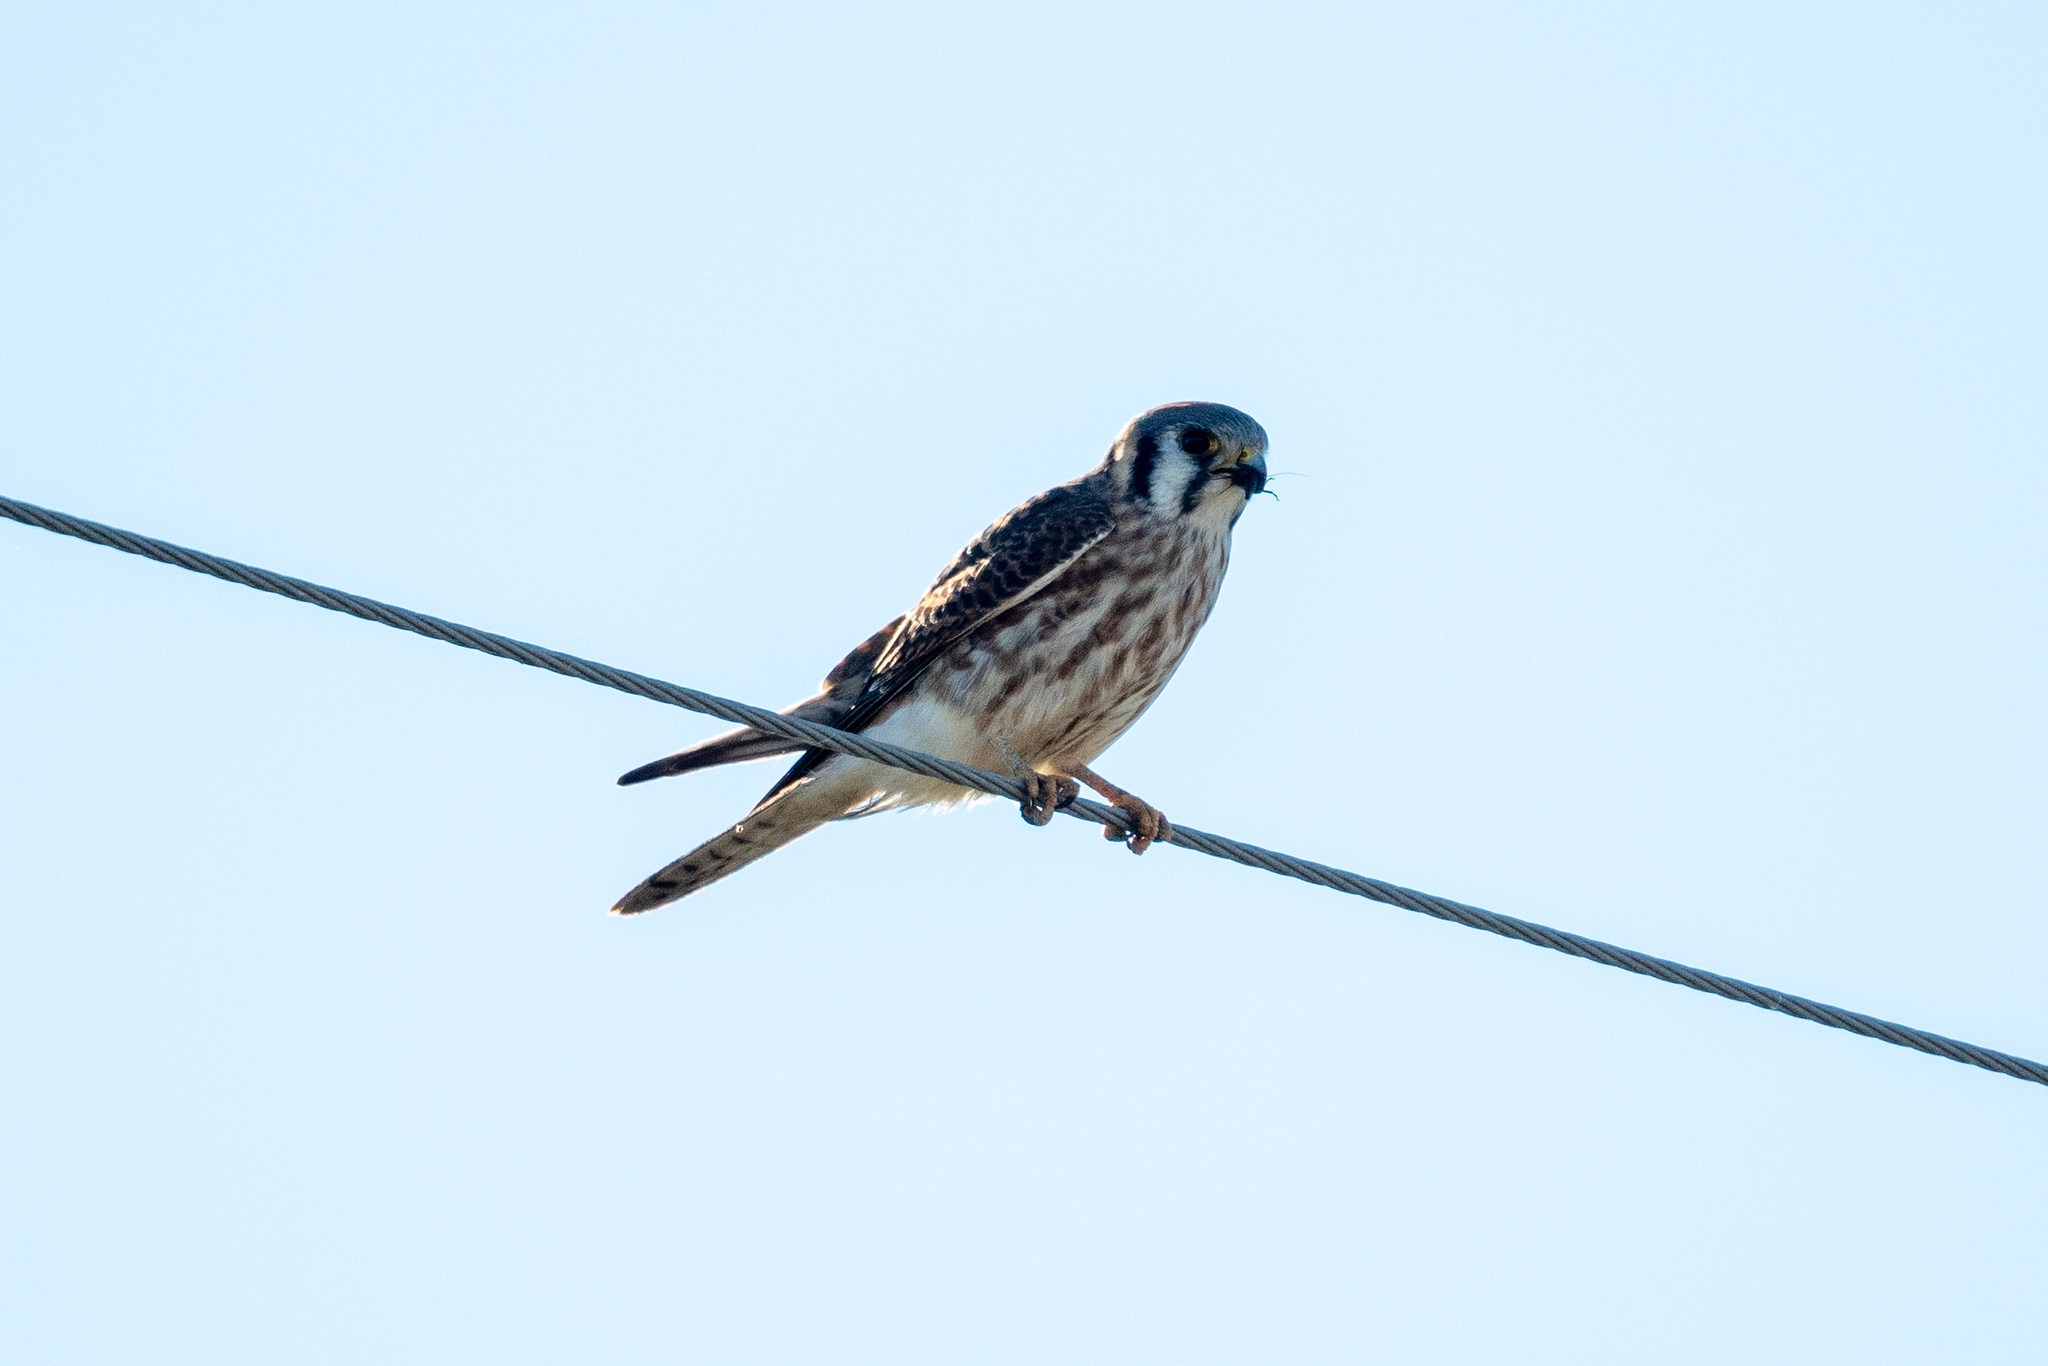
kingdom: Animalia
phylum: Chordata
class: Aves
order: Falconiformes
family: Falconidae
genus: Falco
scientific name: Falco sparverius
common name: American kestrel
